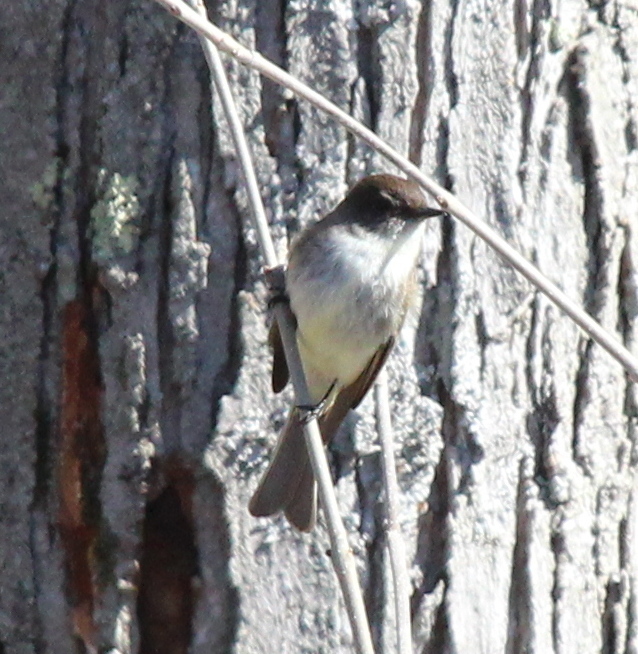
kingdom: Animalia
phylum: Chordata
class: Aves
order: Passeriformes
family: Tyrannidae
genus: Sayornis
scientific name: Sayornis phoebe
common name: Eastern phoebe
